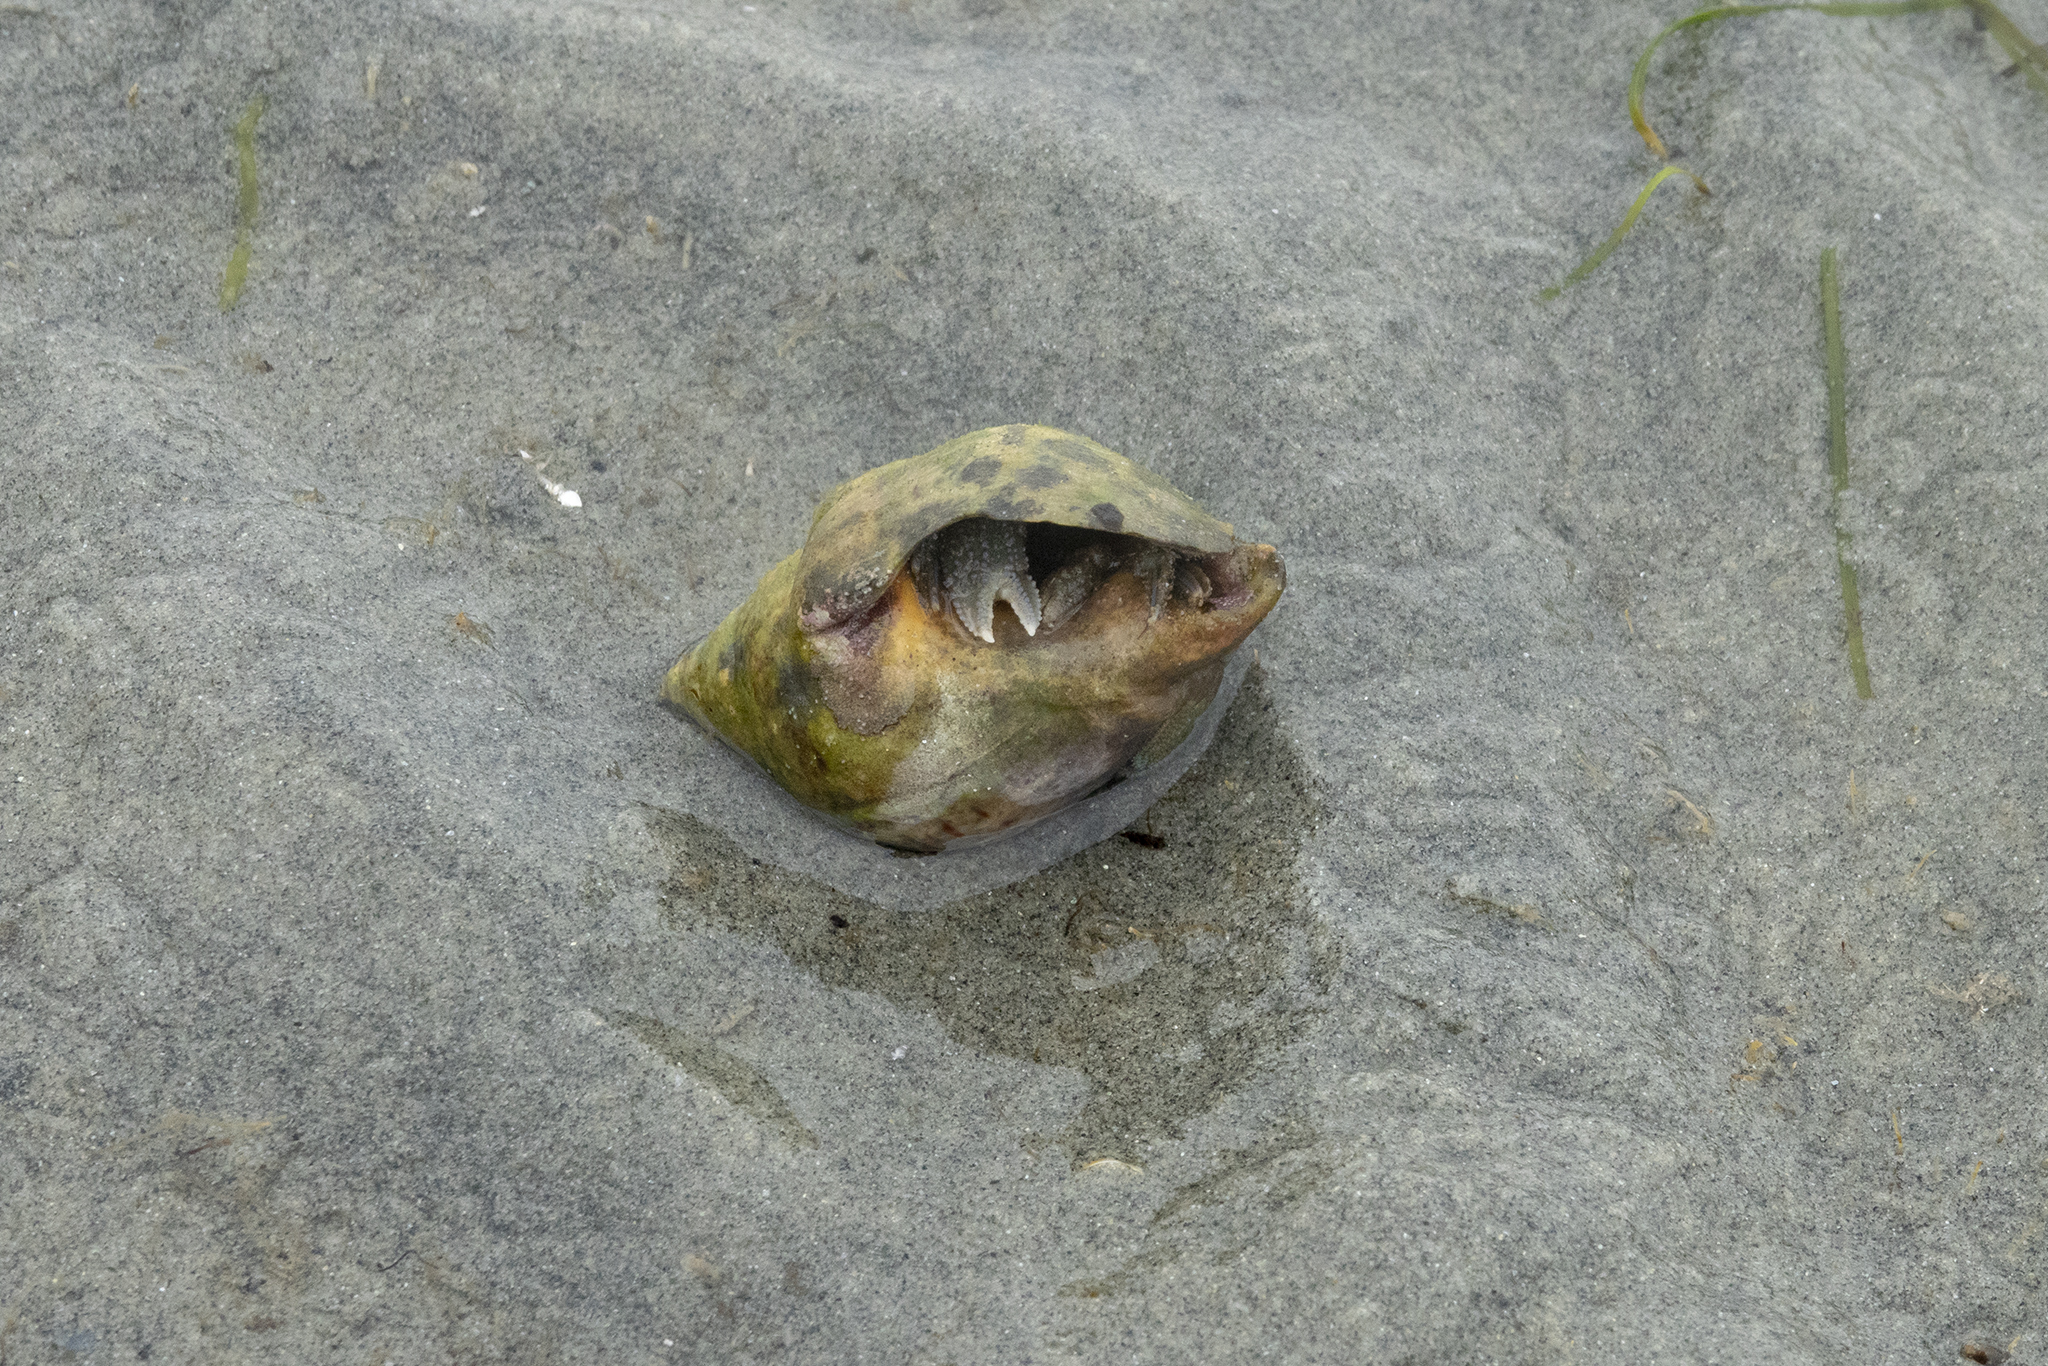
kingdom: Animalia
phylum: Arthropoda
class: Malacostraca
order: Decapoda
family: Paguridae
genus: Pagurus
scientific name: Pagurus novizealandiae
